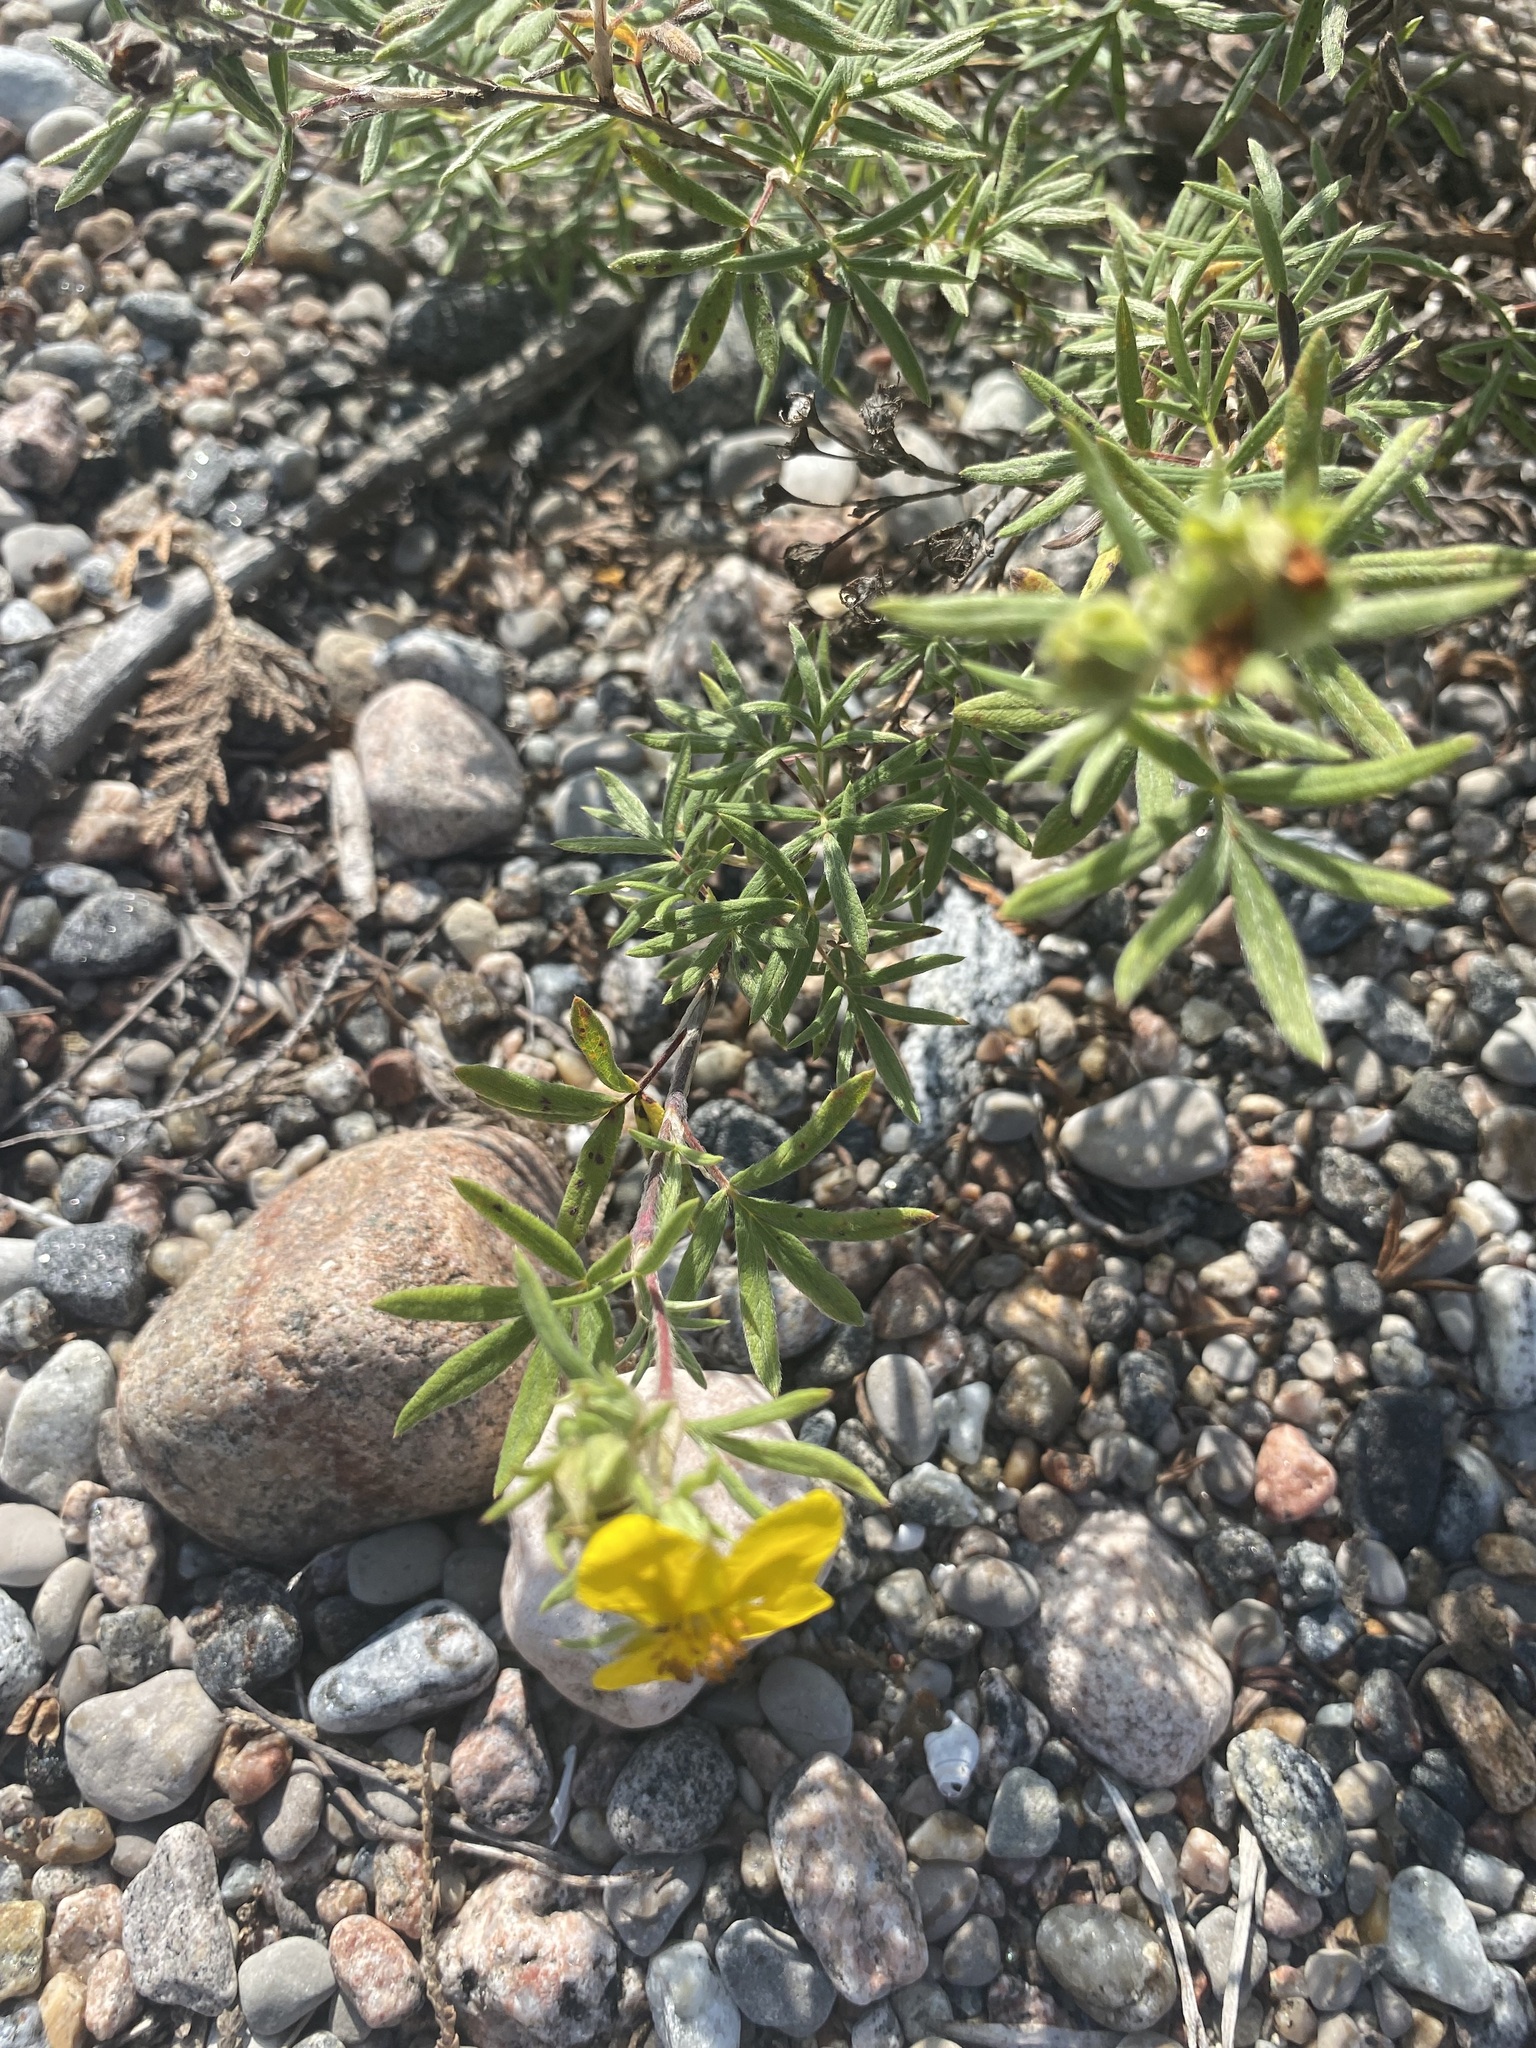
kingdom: Plantae
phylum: Tracheophyta
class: Magnoliopsida
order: Rosales
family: Rosaceae
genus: Dasiphora
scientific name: Dasiphora fruticosa
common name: Shrubby cinquefoil
